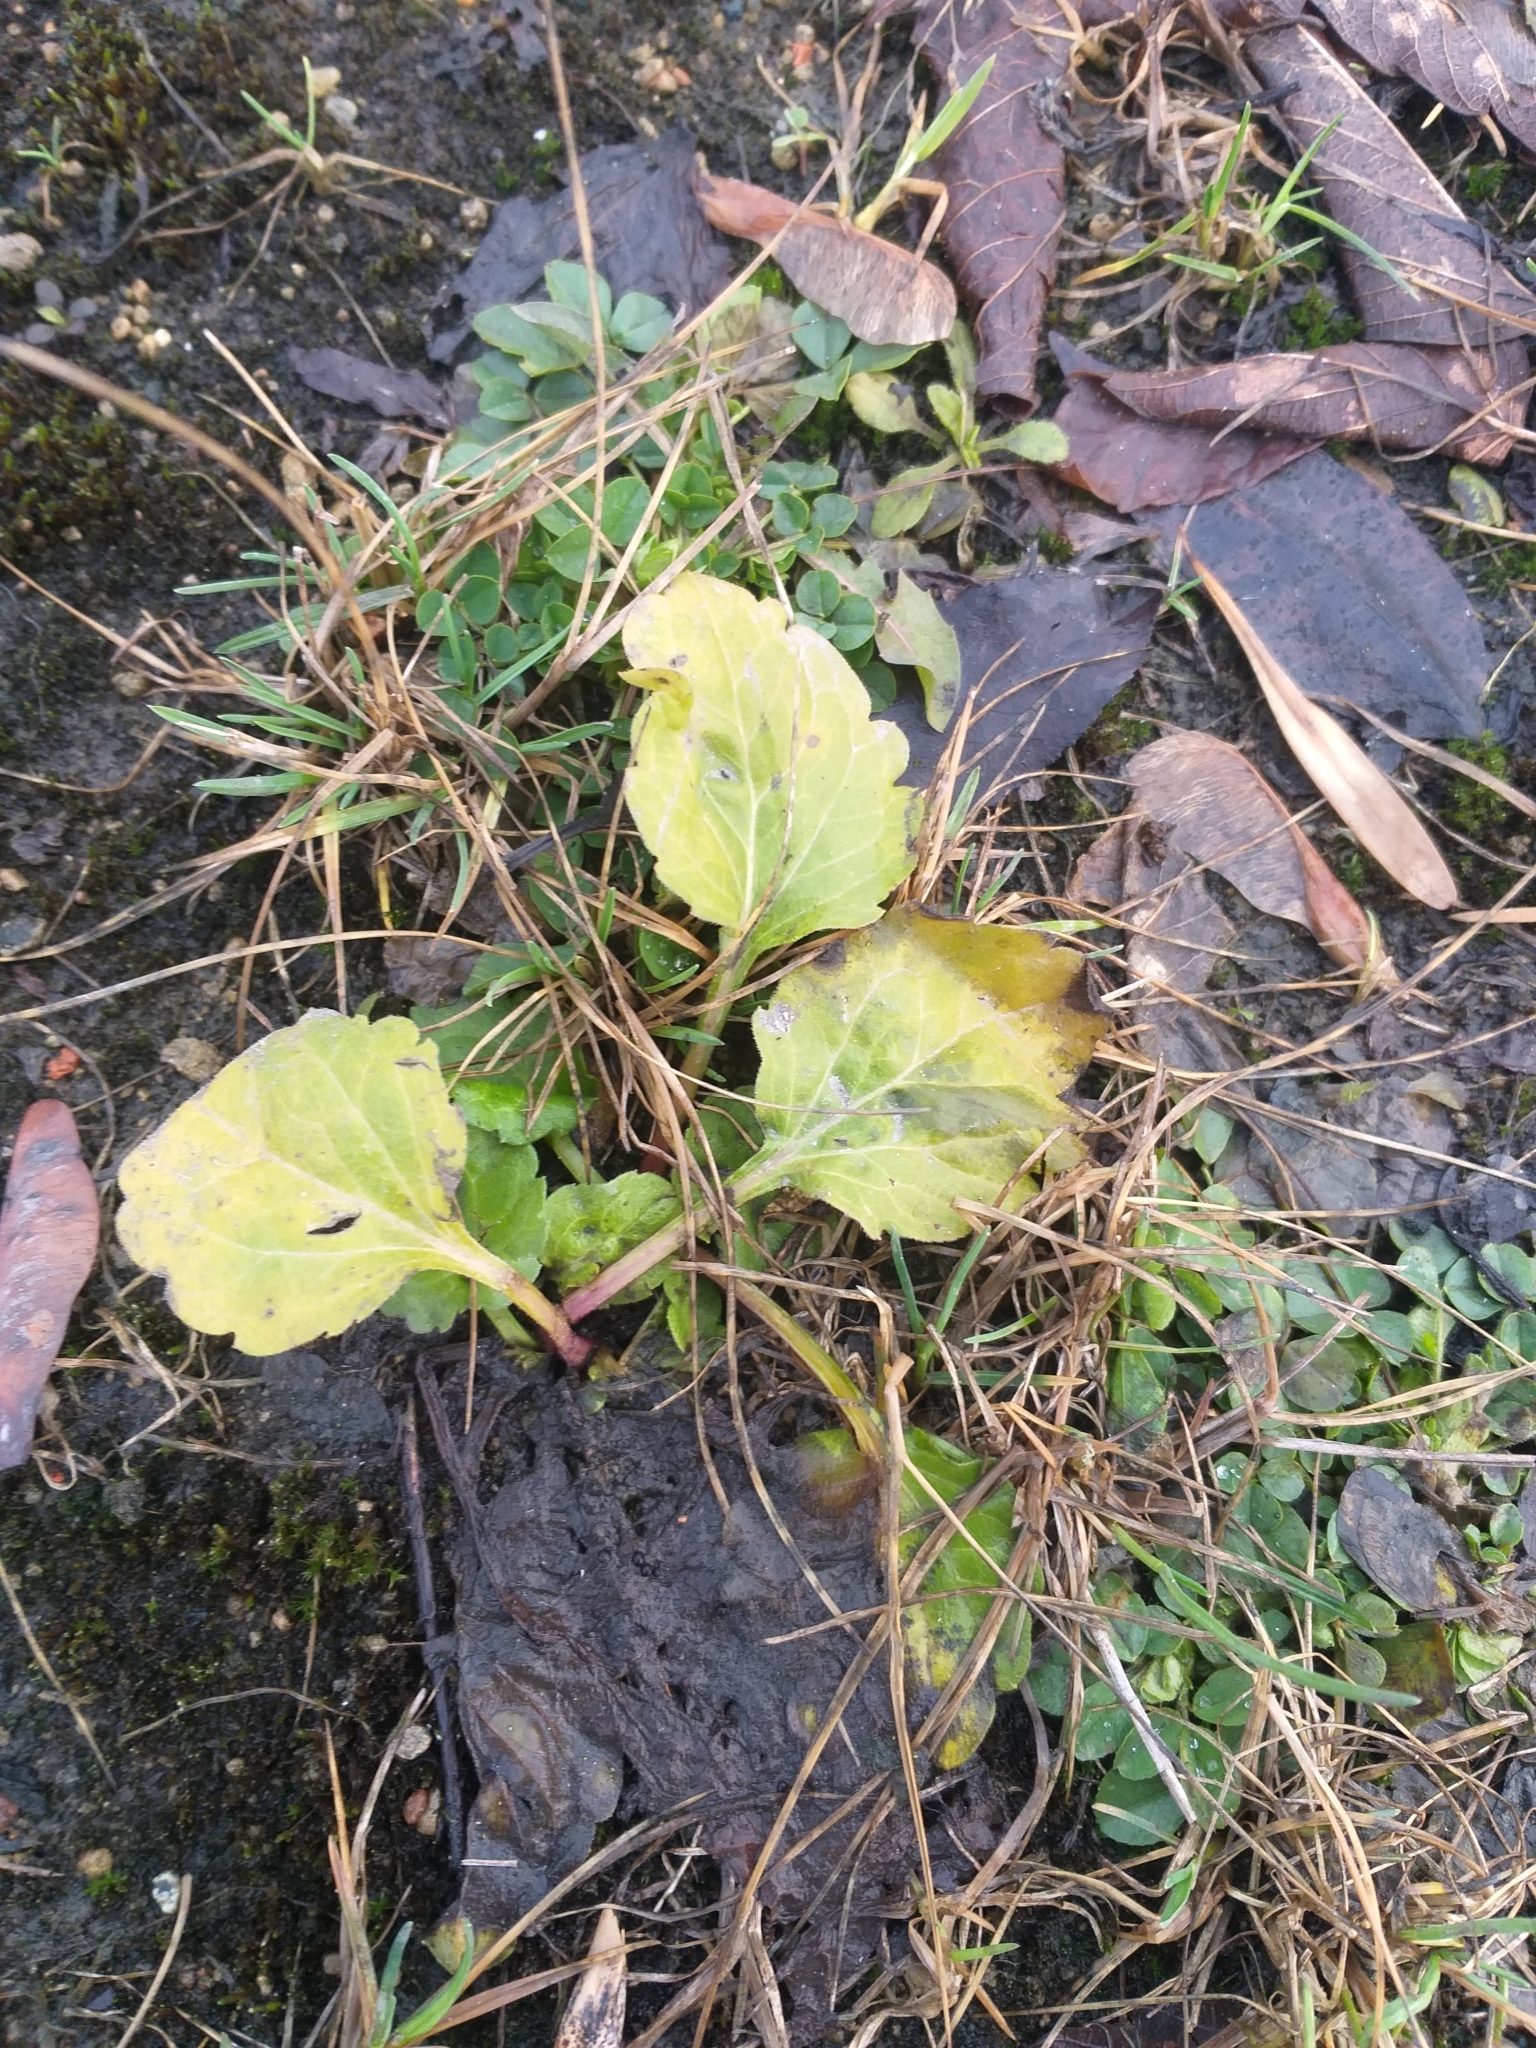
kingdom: Plantae
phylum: Tracheophyta
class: Magnoliopsida
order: Asterales
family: Asteraceae
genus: Erigeron
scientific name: Erigeron annuus
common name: Tall fleabane
